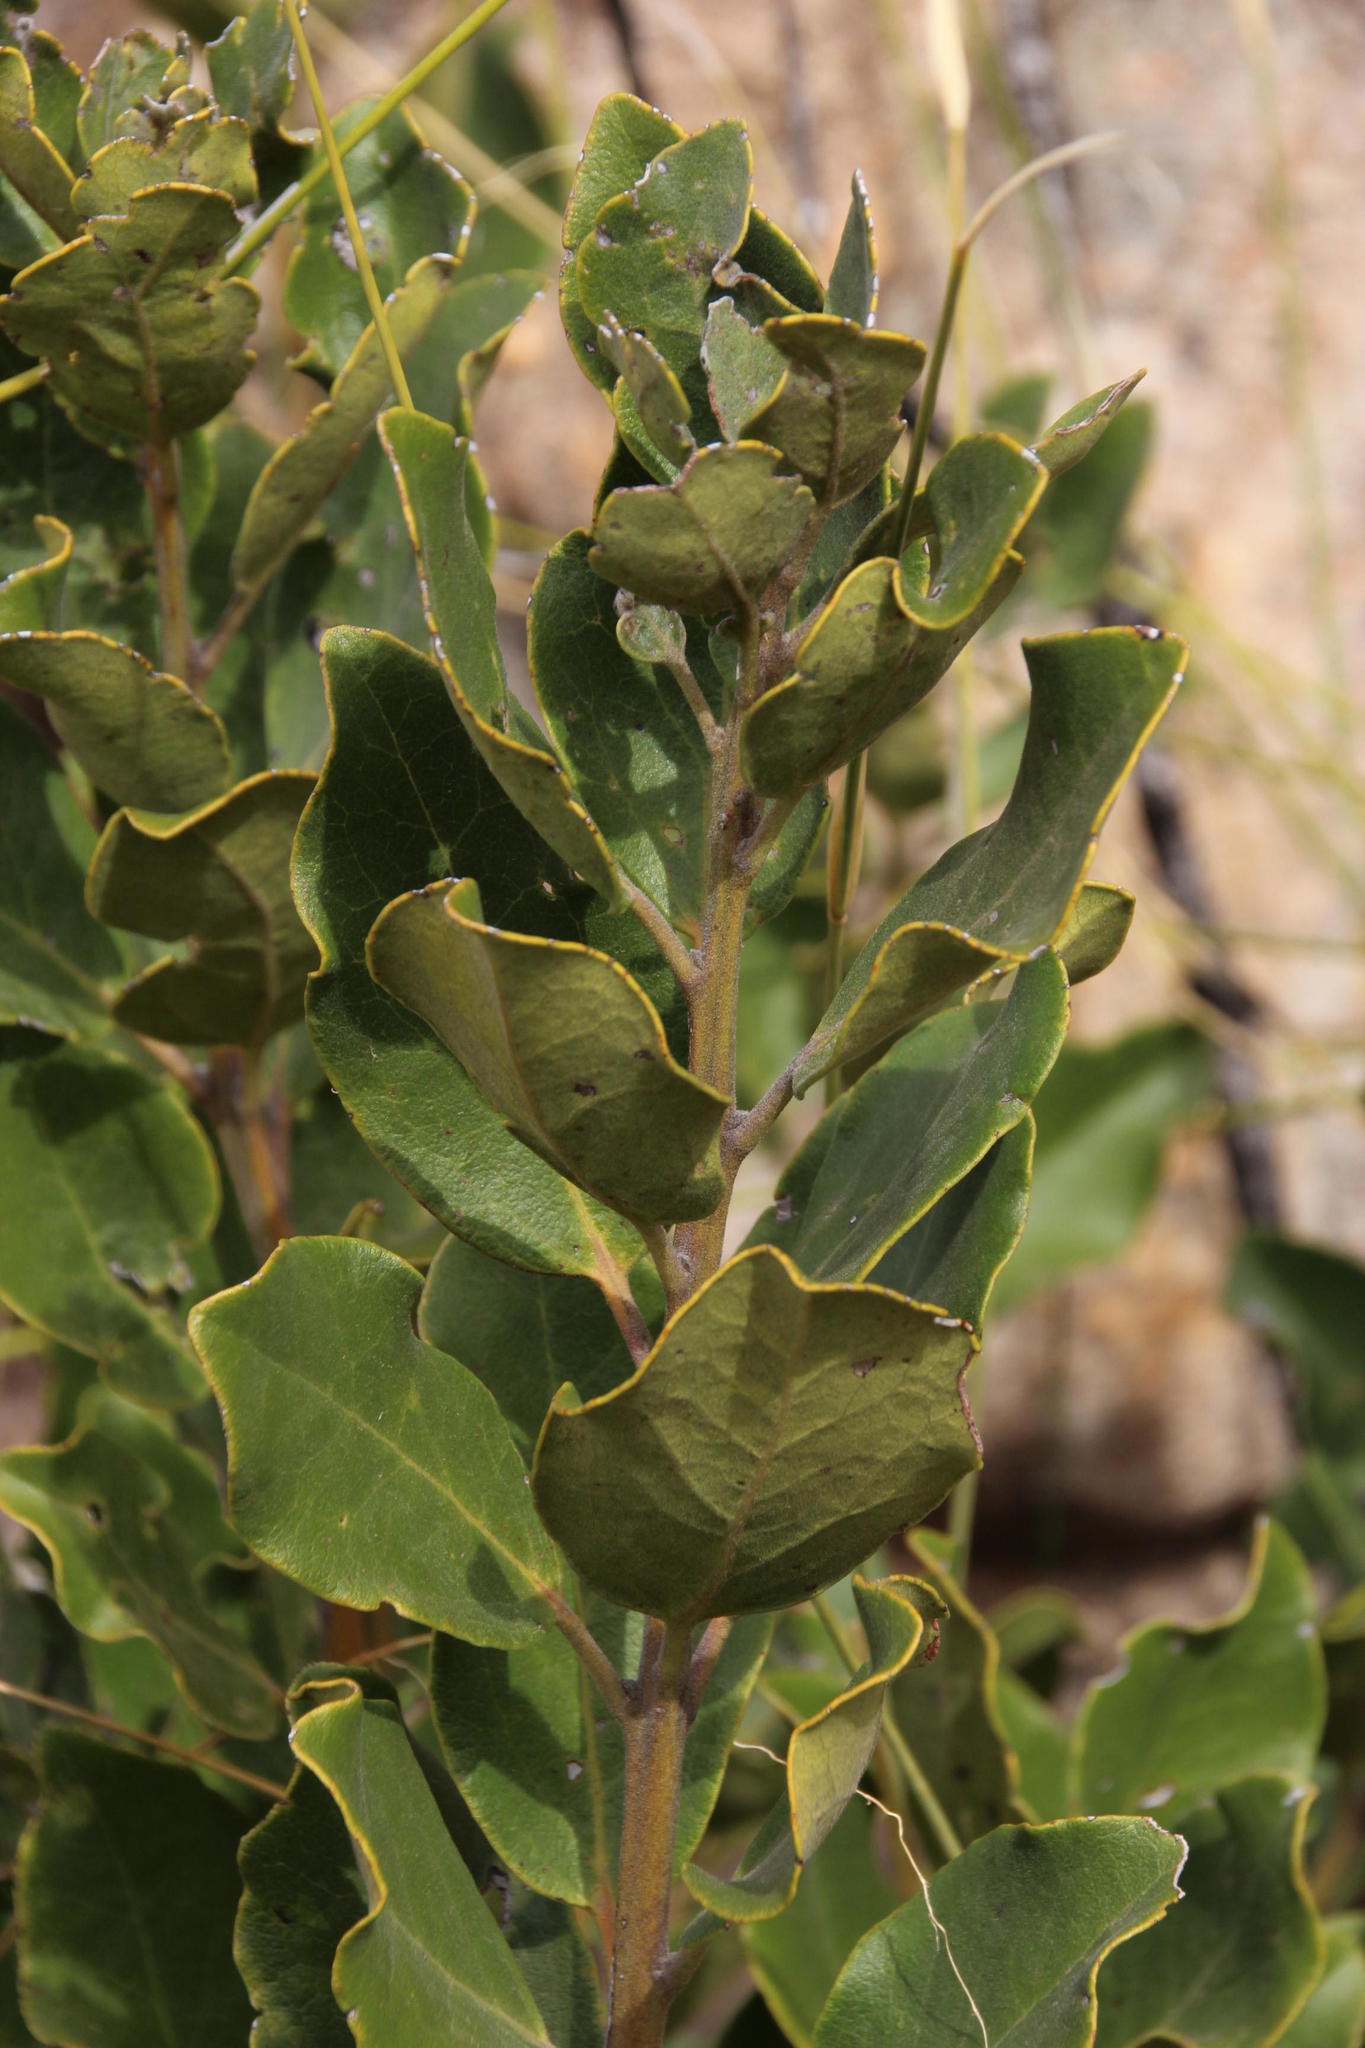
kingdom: Plantae
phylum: Tracheophyta
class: Magnoliopsida
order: Ericales
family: Ebenaceae
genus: Euclea
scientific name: Euclea tomentosa
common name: Honey guarri
